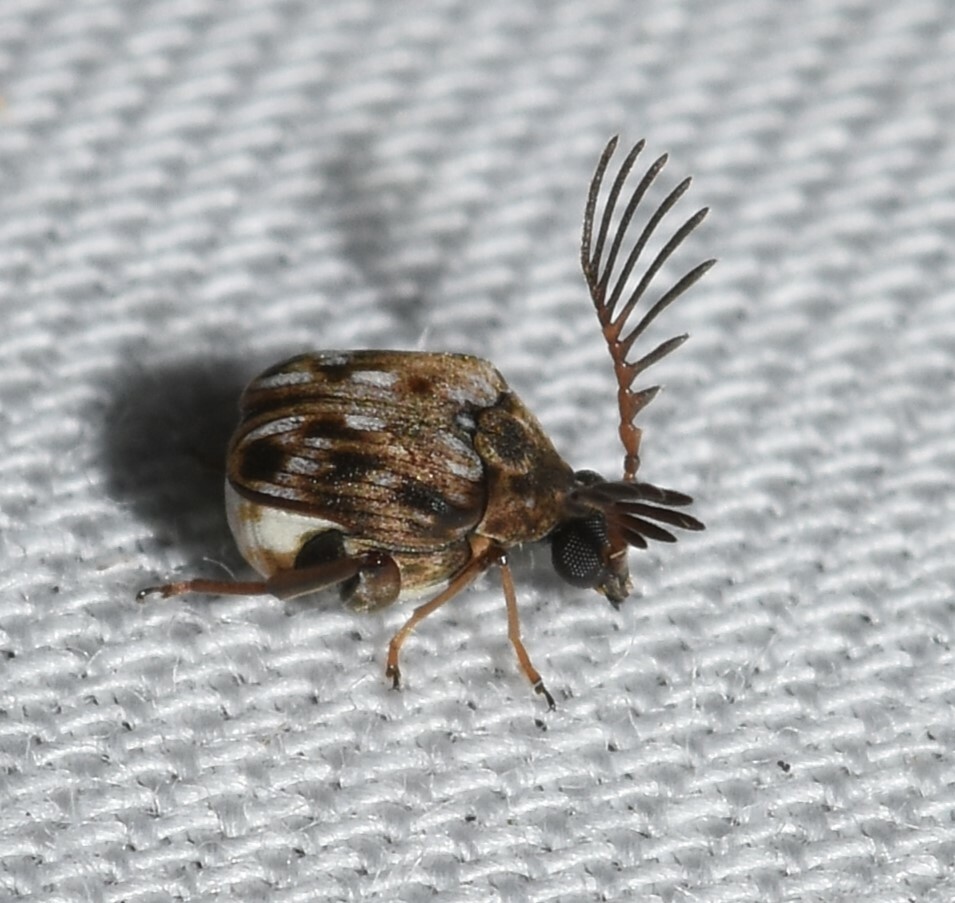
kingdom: Animalia
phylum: Arthropoda
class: Insecta
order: Coleoptera
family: Chrysomelidae
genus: Megacerus
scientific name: Megacerus cubiculus
